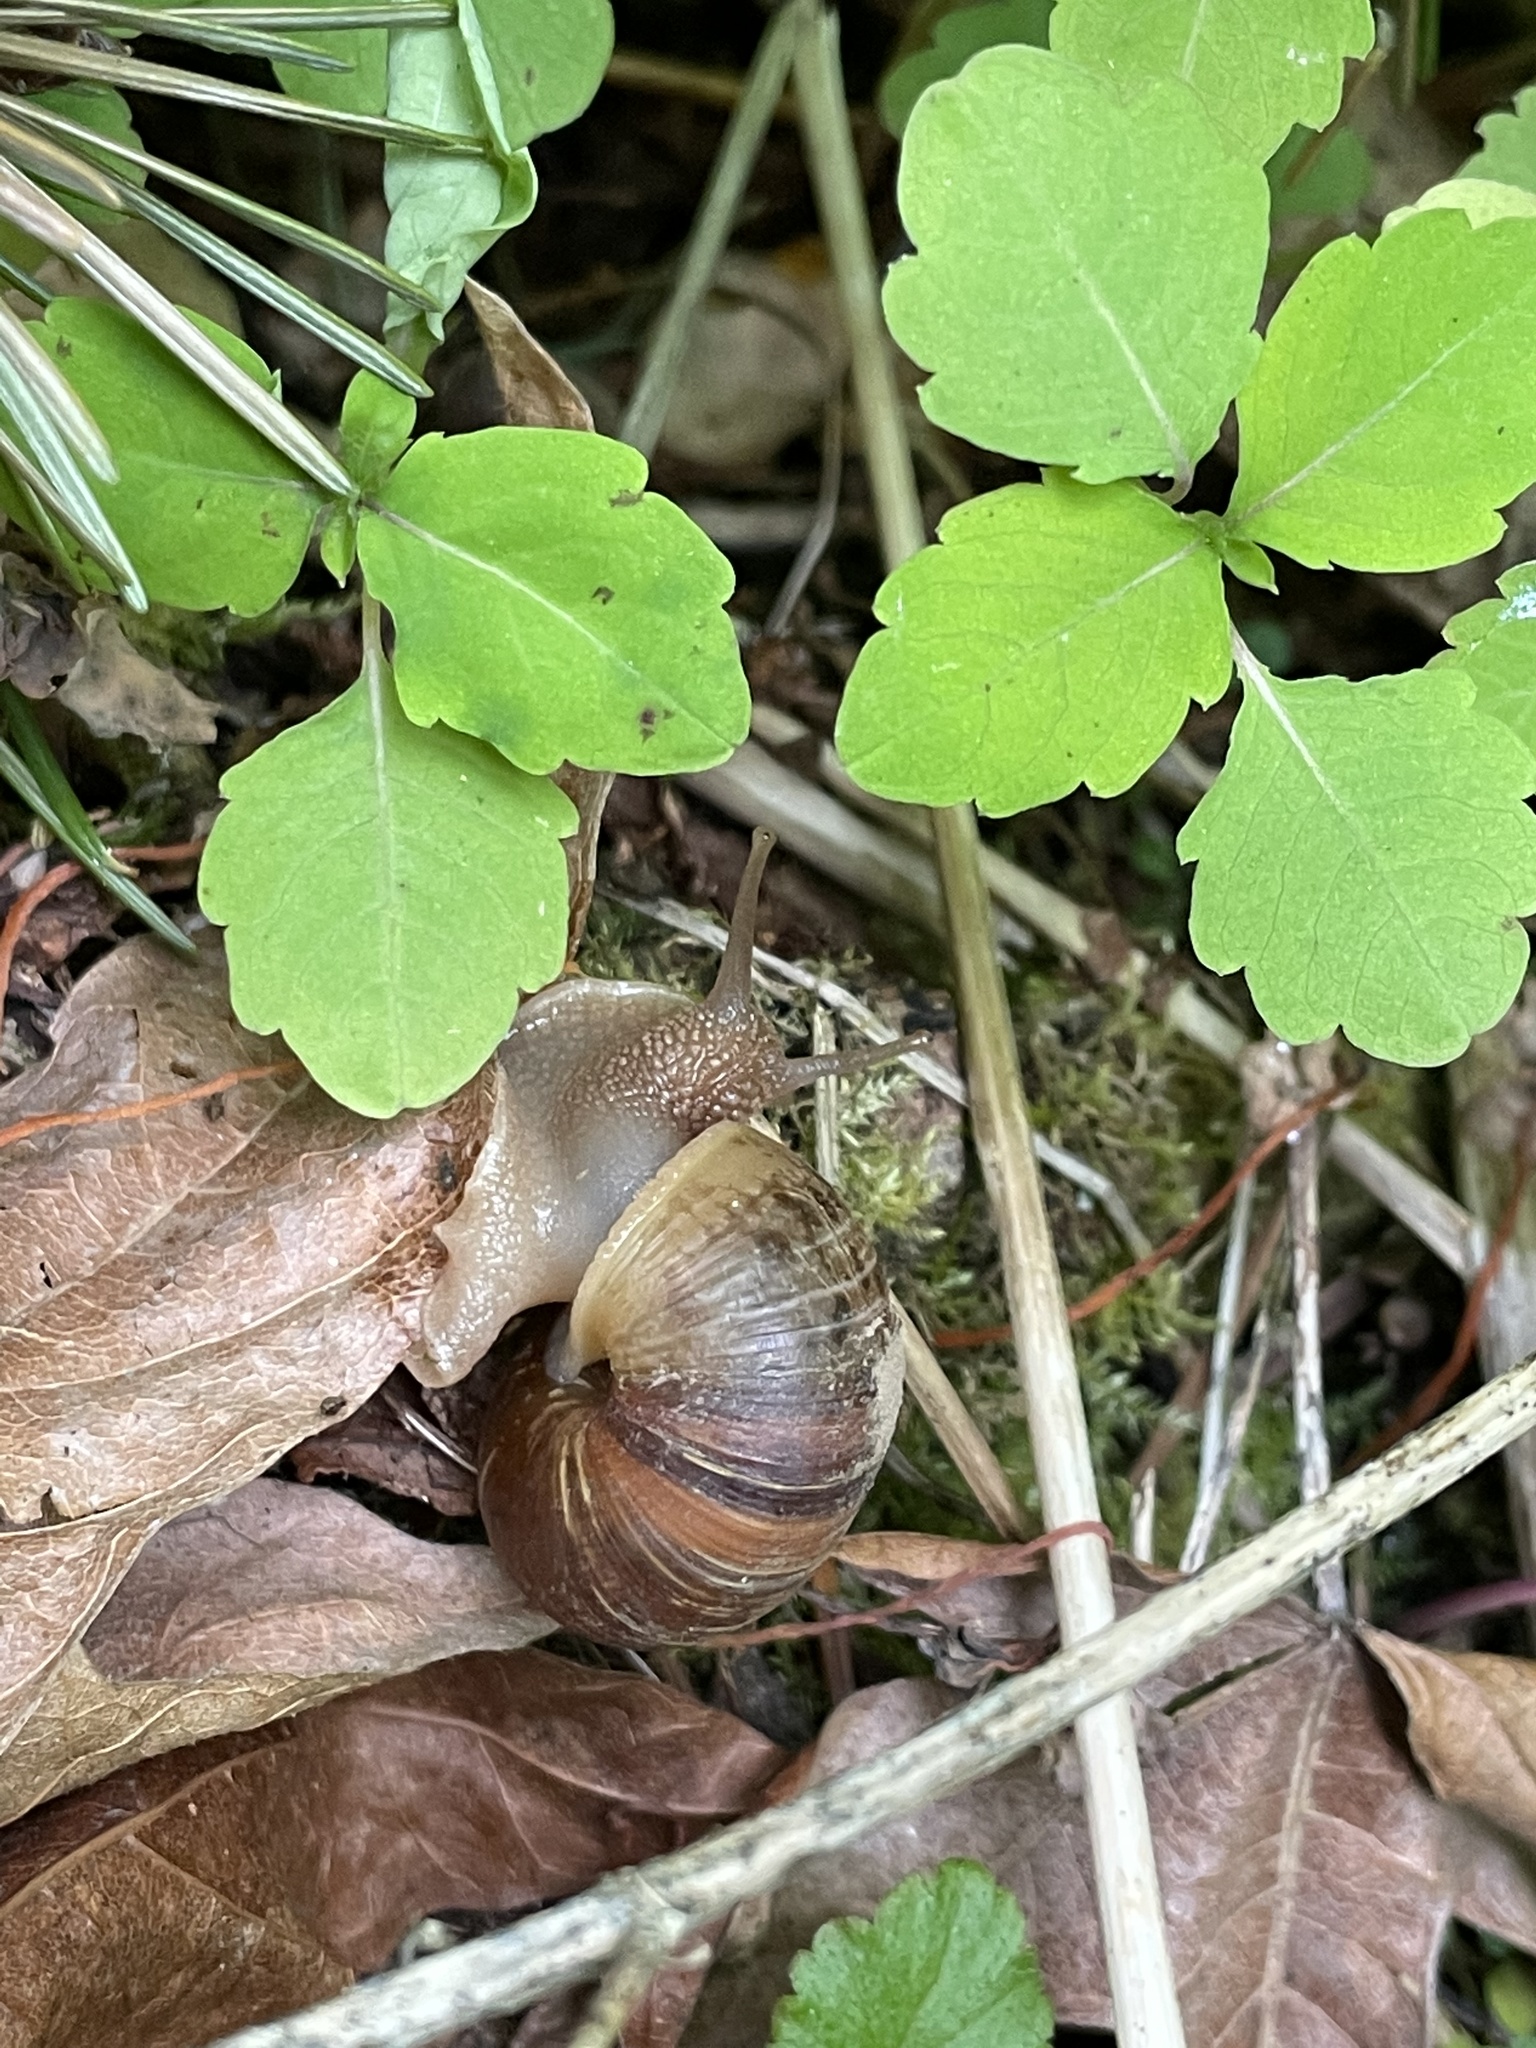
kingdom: Animalia
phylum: Mollusca
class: Gastropoda
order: Stylommatophora
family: Helicidae
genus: Cornu
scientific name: Cornu aspersum
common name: Brown garden snail
